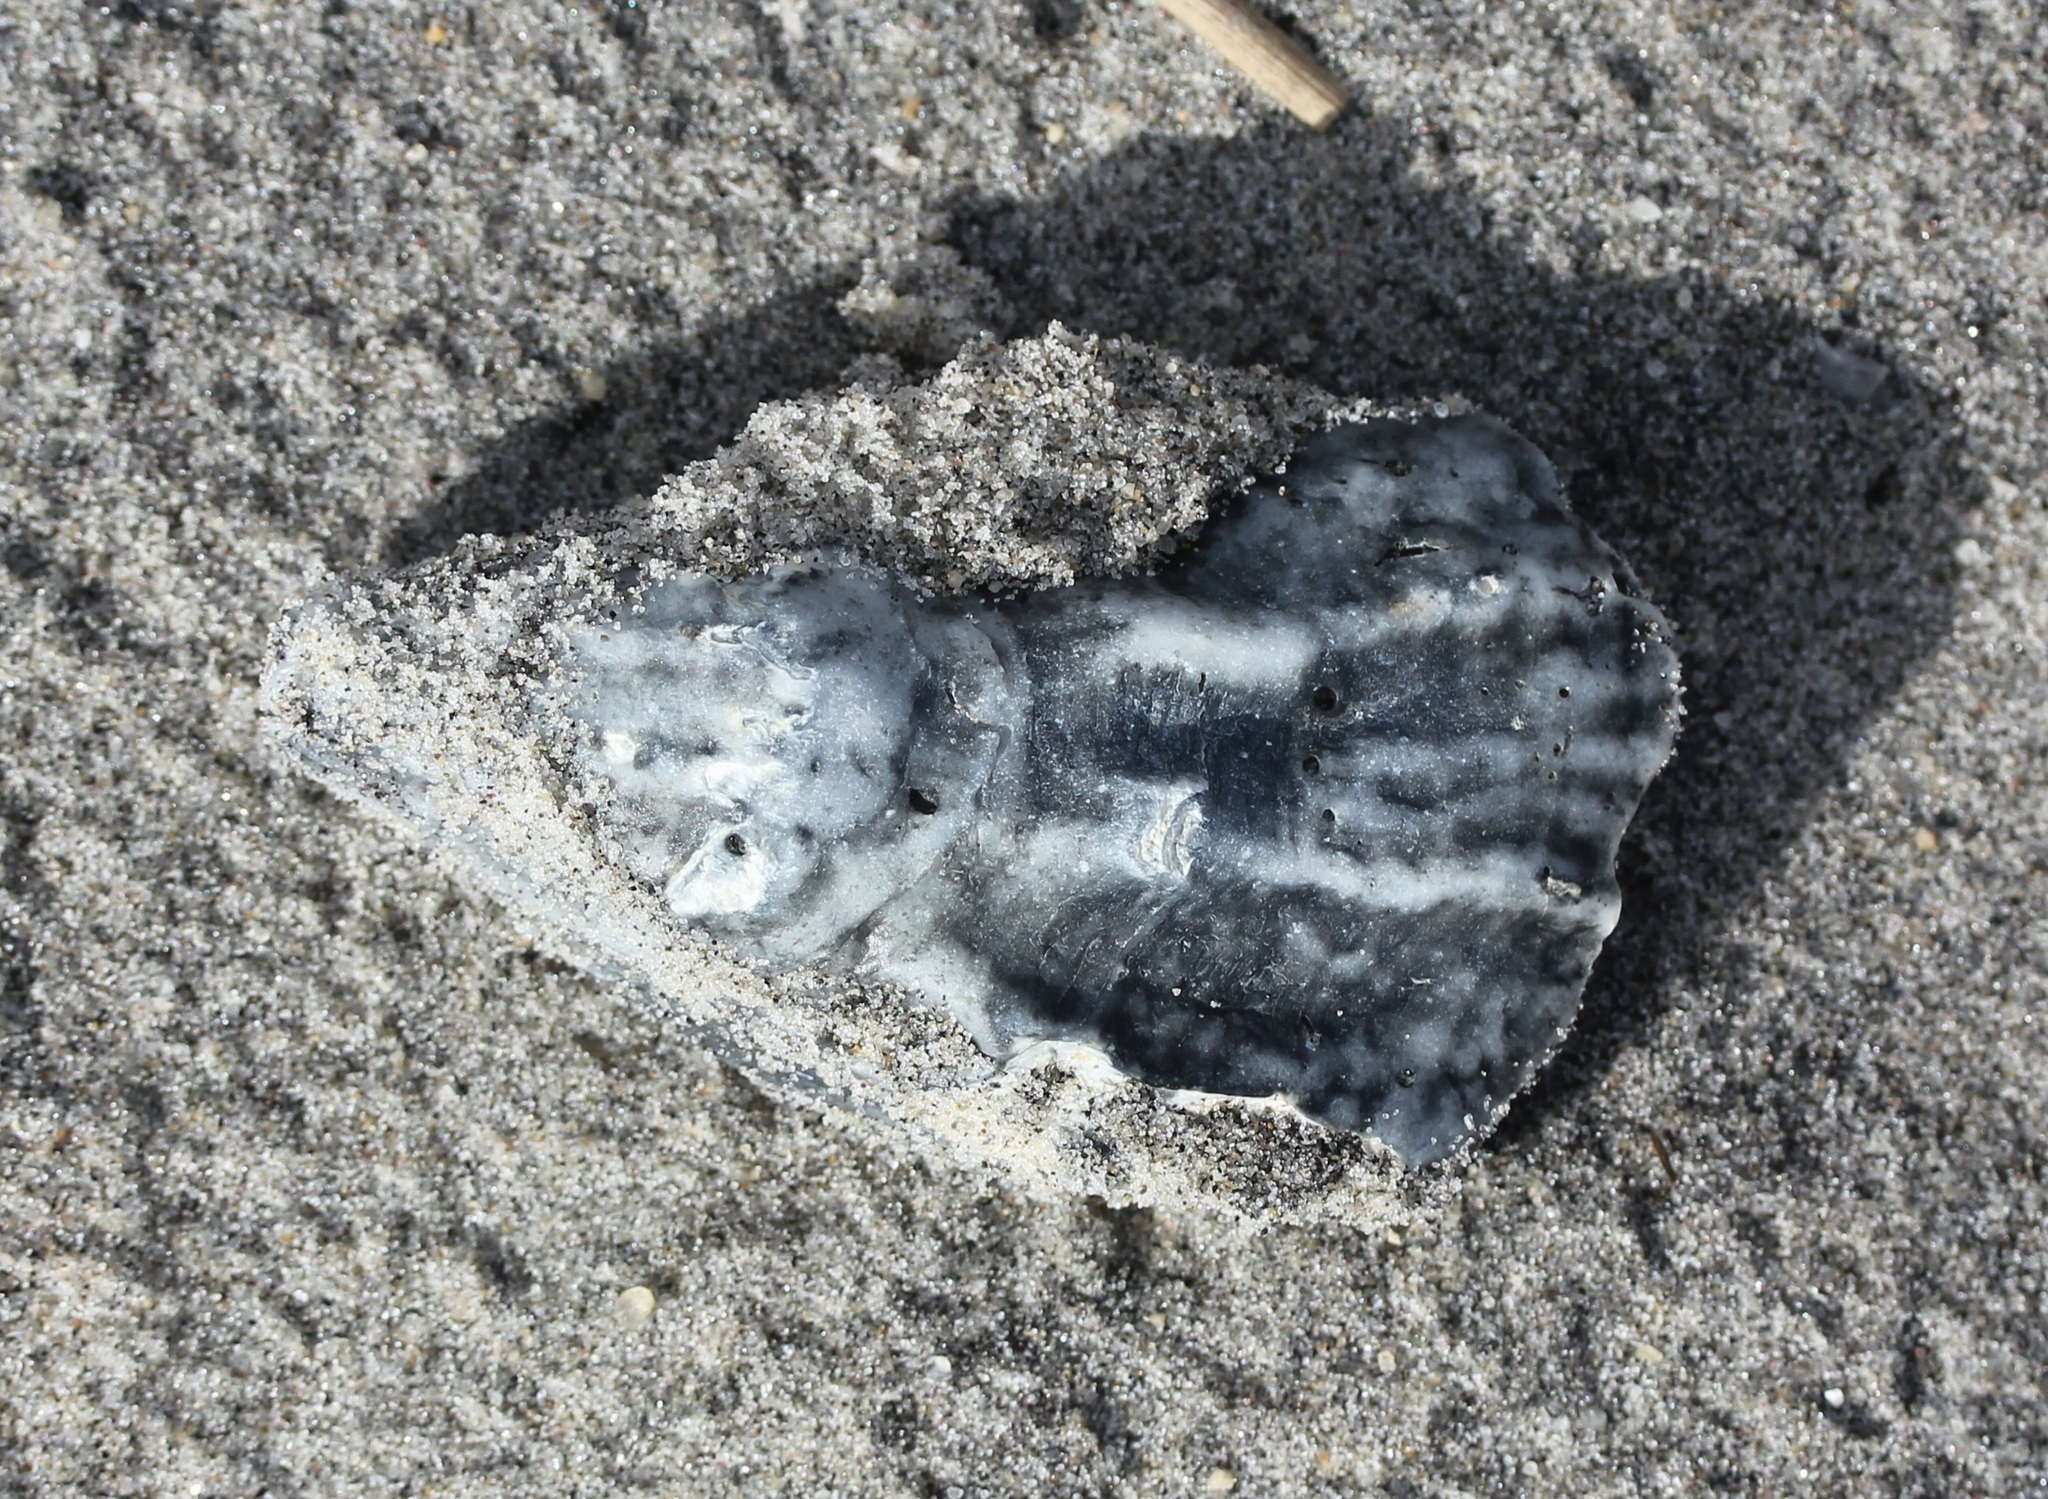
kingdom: Animalia
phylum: Mollusca
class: Bivalvia
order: Ostreida
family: Ostreidae
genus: Crassostrea
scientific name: Crassostrea virginica
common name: American oyster
